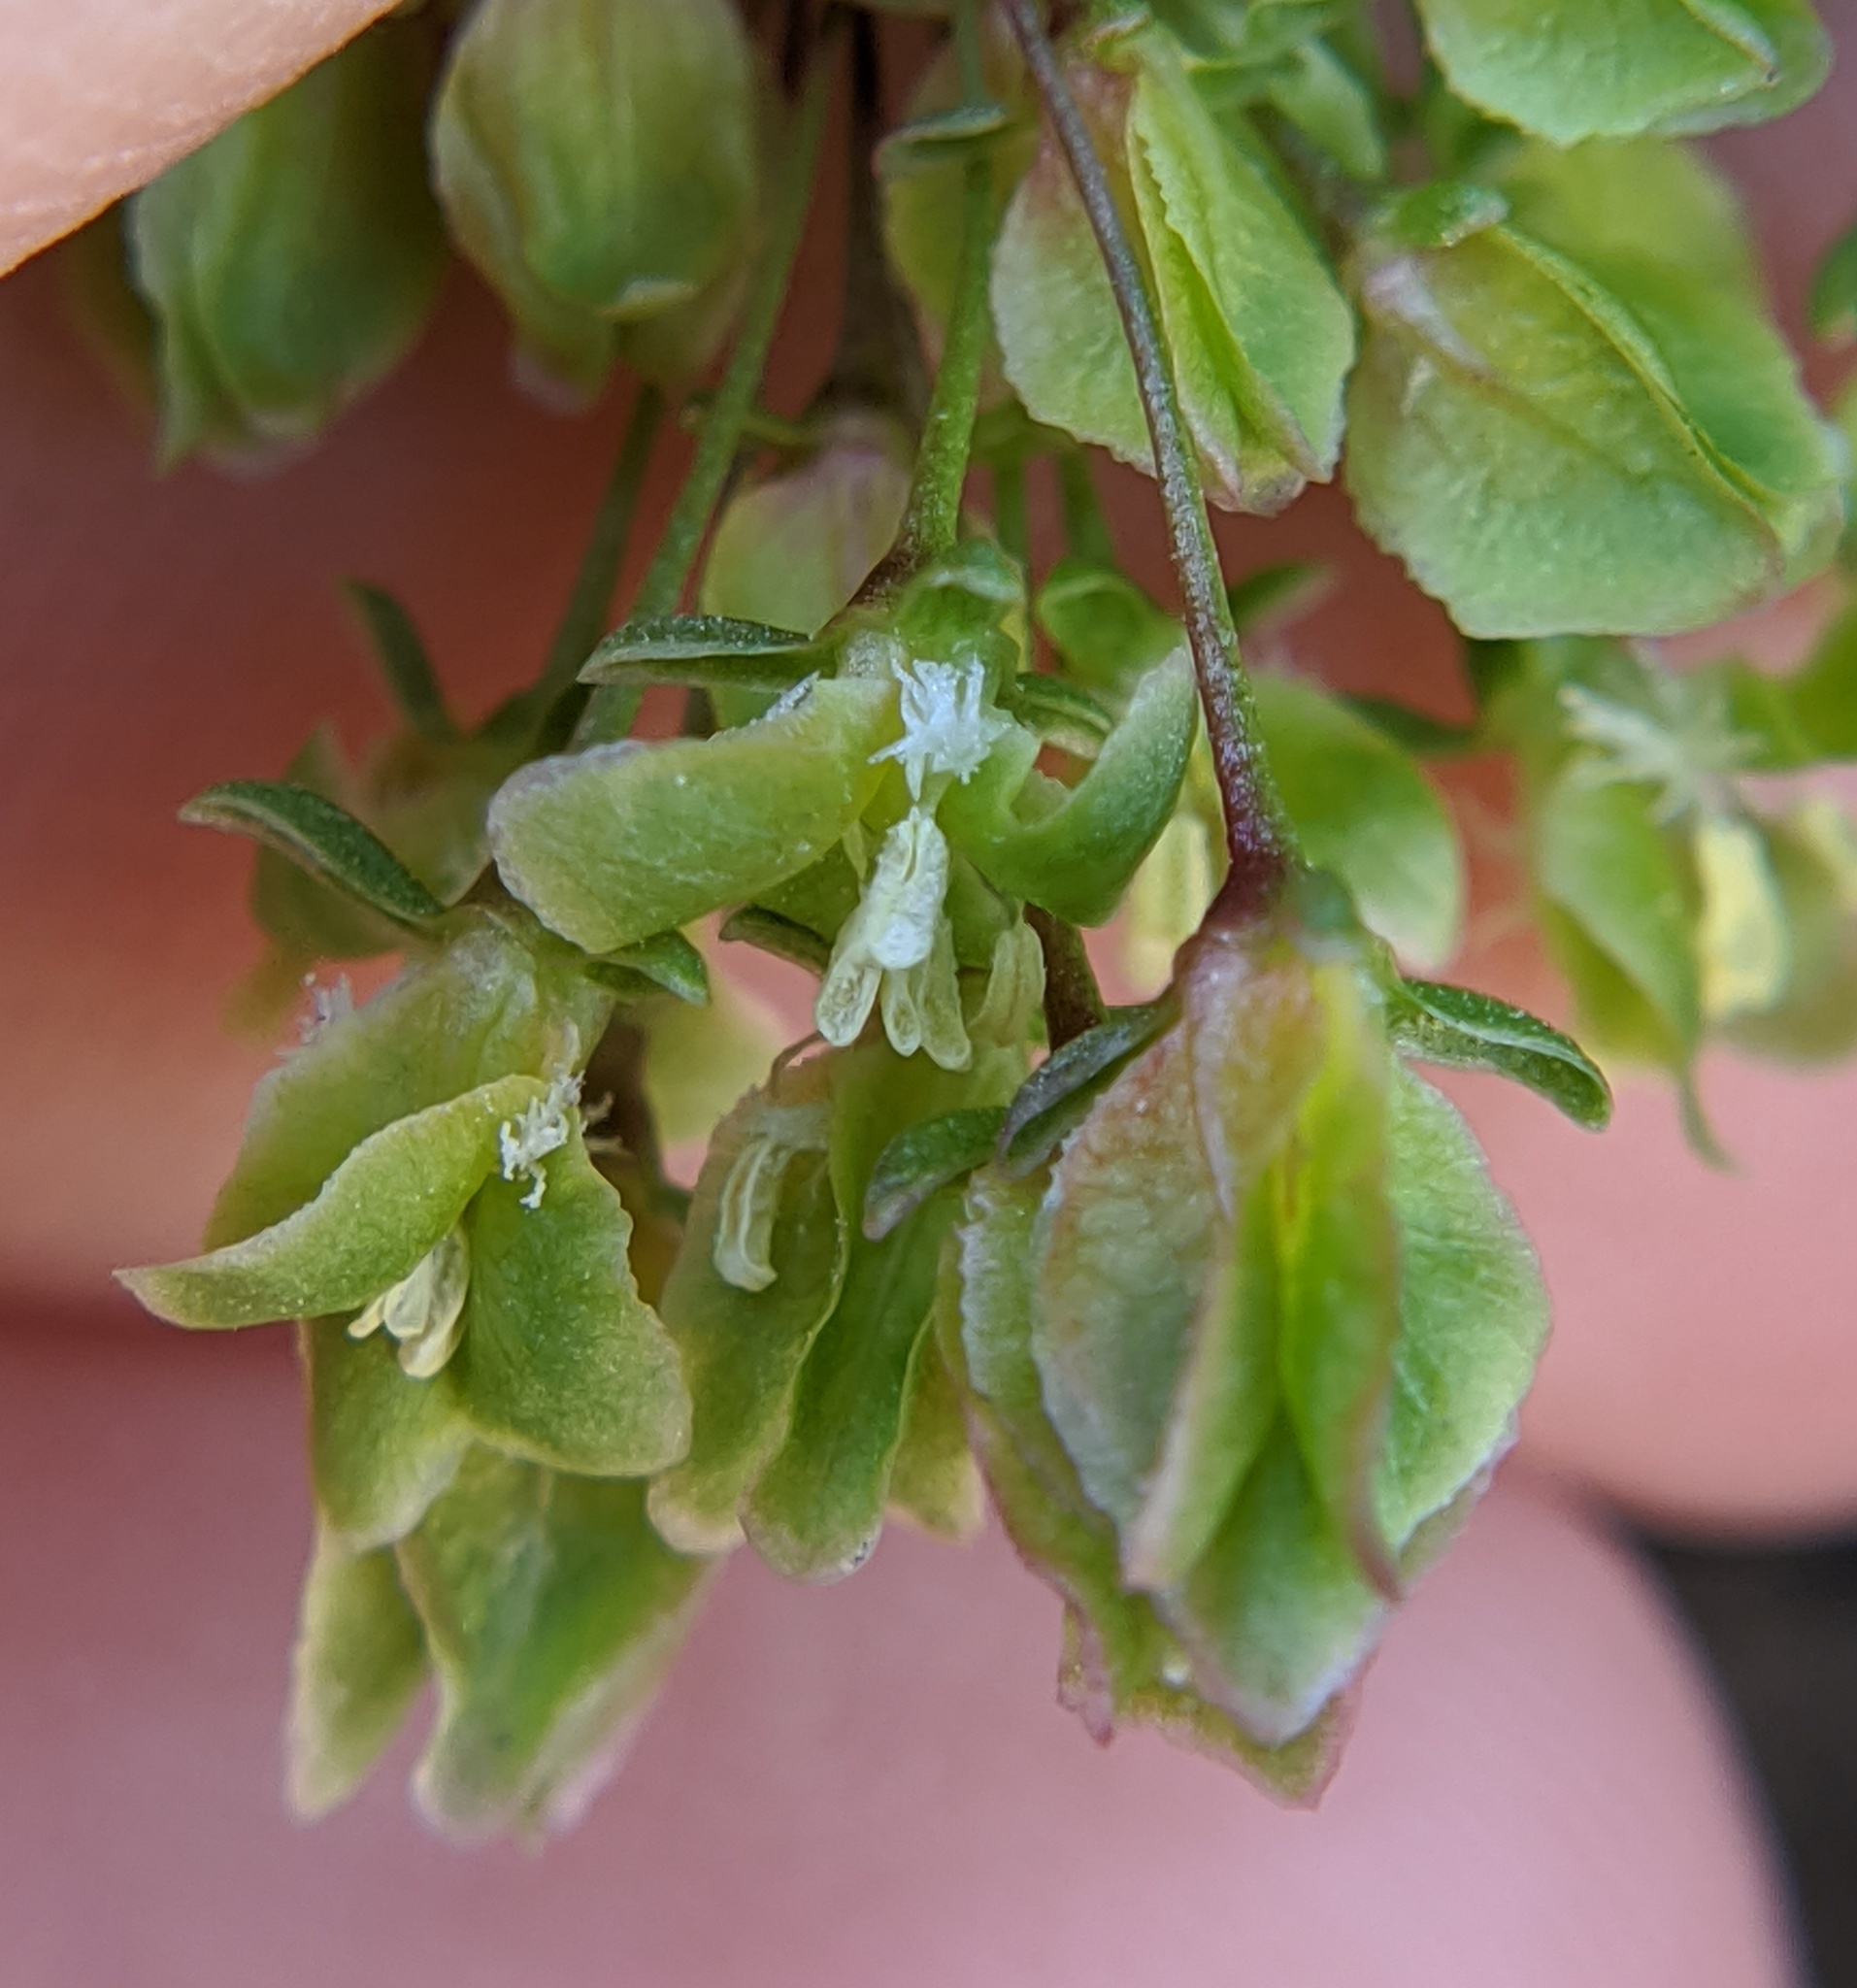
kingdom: Plantae
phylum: Tracheophyta
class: Magnoliopsida
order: Caryophyllales
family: Polygonaceae
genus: Rumex
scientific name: Rumex crispus
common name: Curled dock
